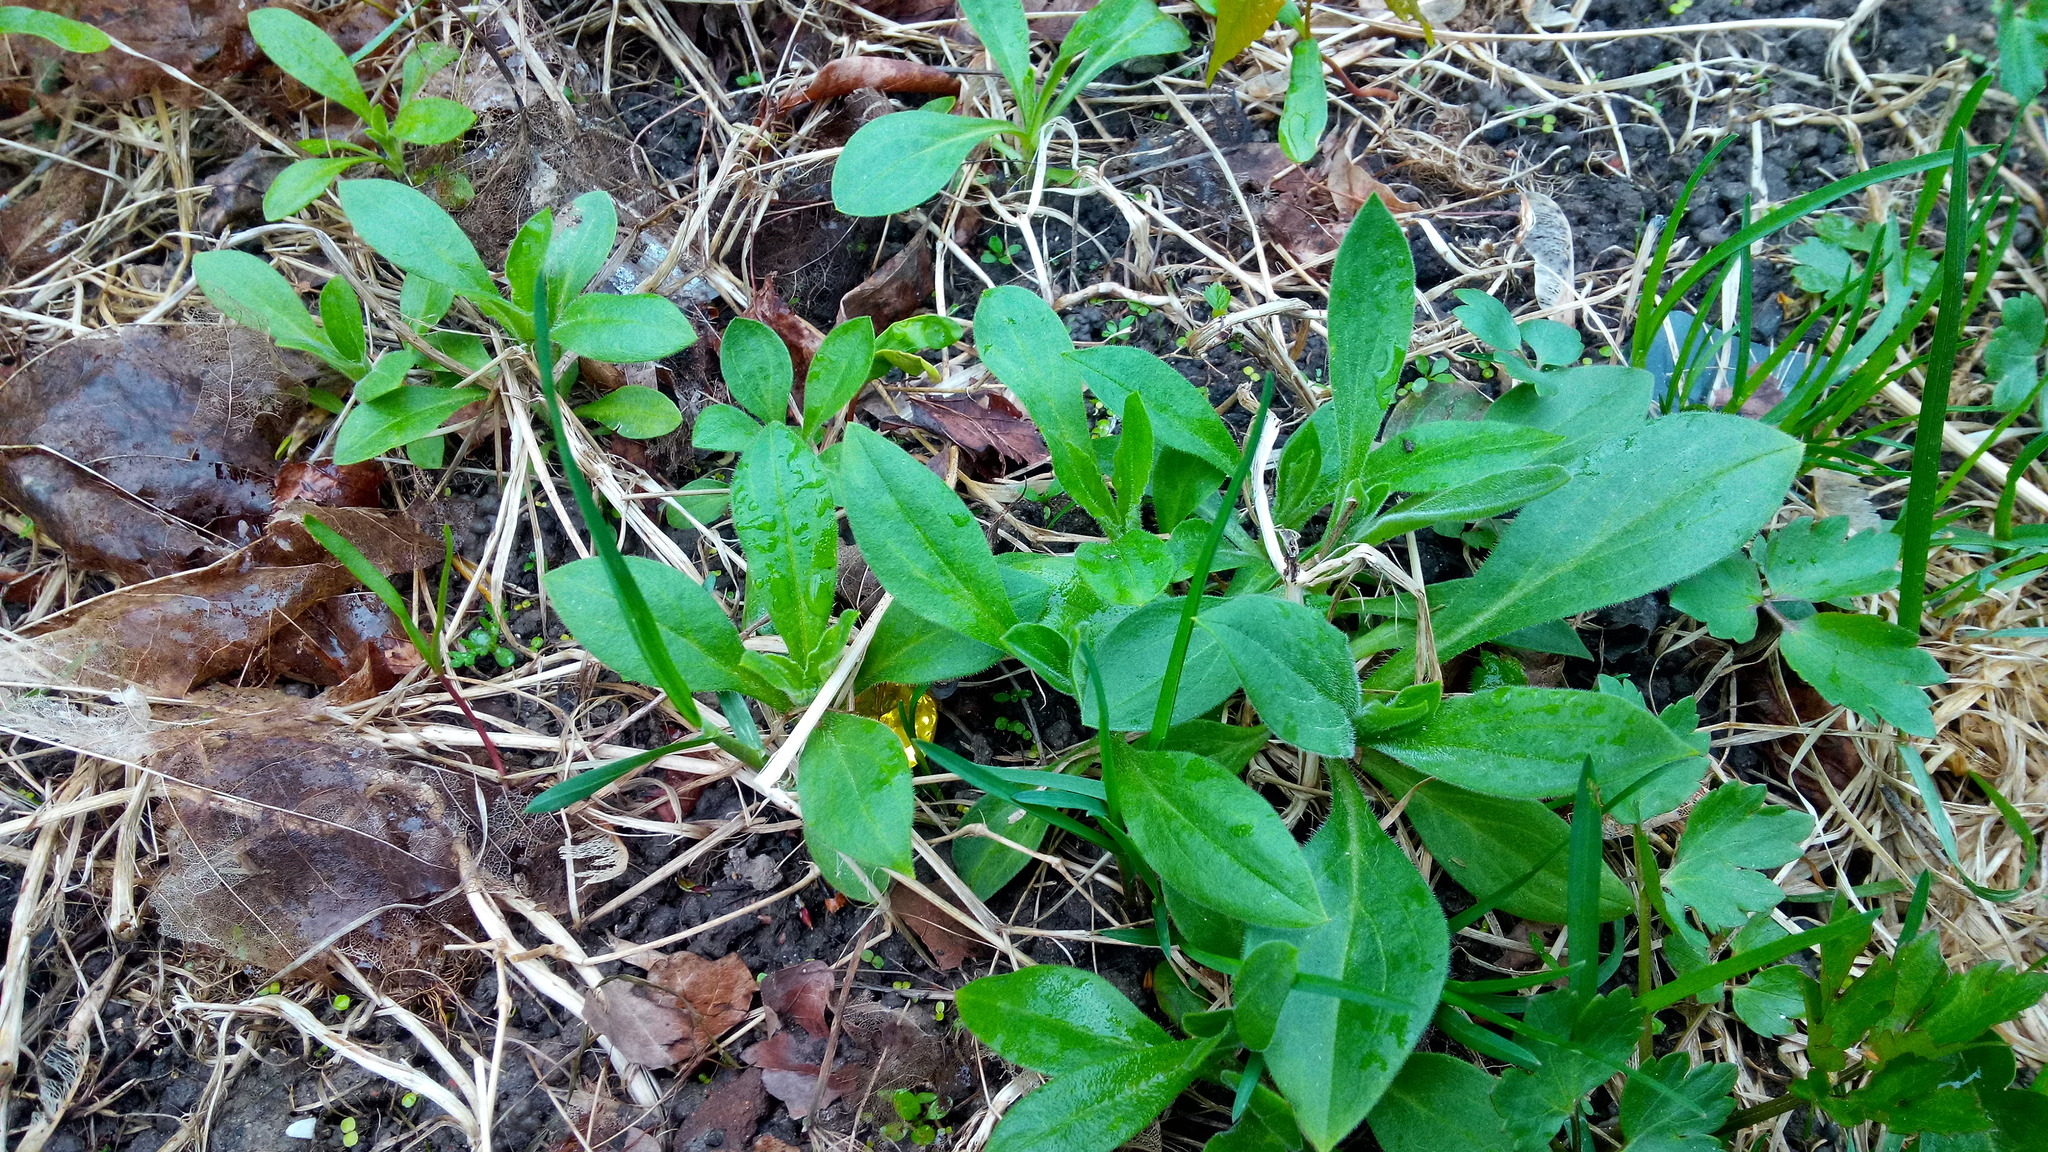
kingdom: Plantae
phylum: Tracheophyta
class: Magnoliopsida
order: Caryophyllales
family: Caryophyllaceae
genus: Silene
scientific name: Silene latifolia
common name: White campion
